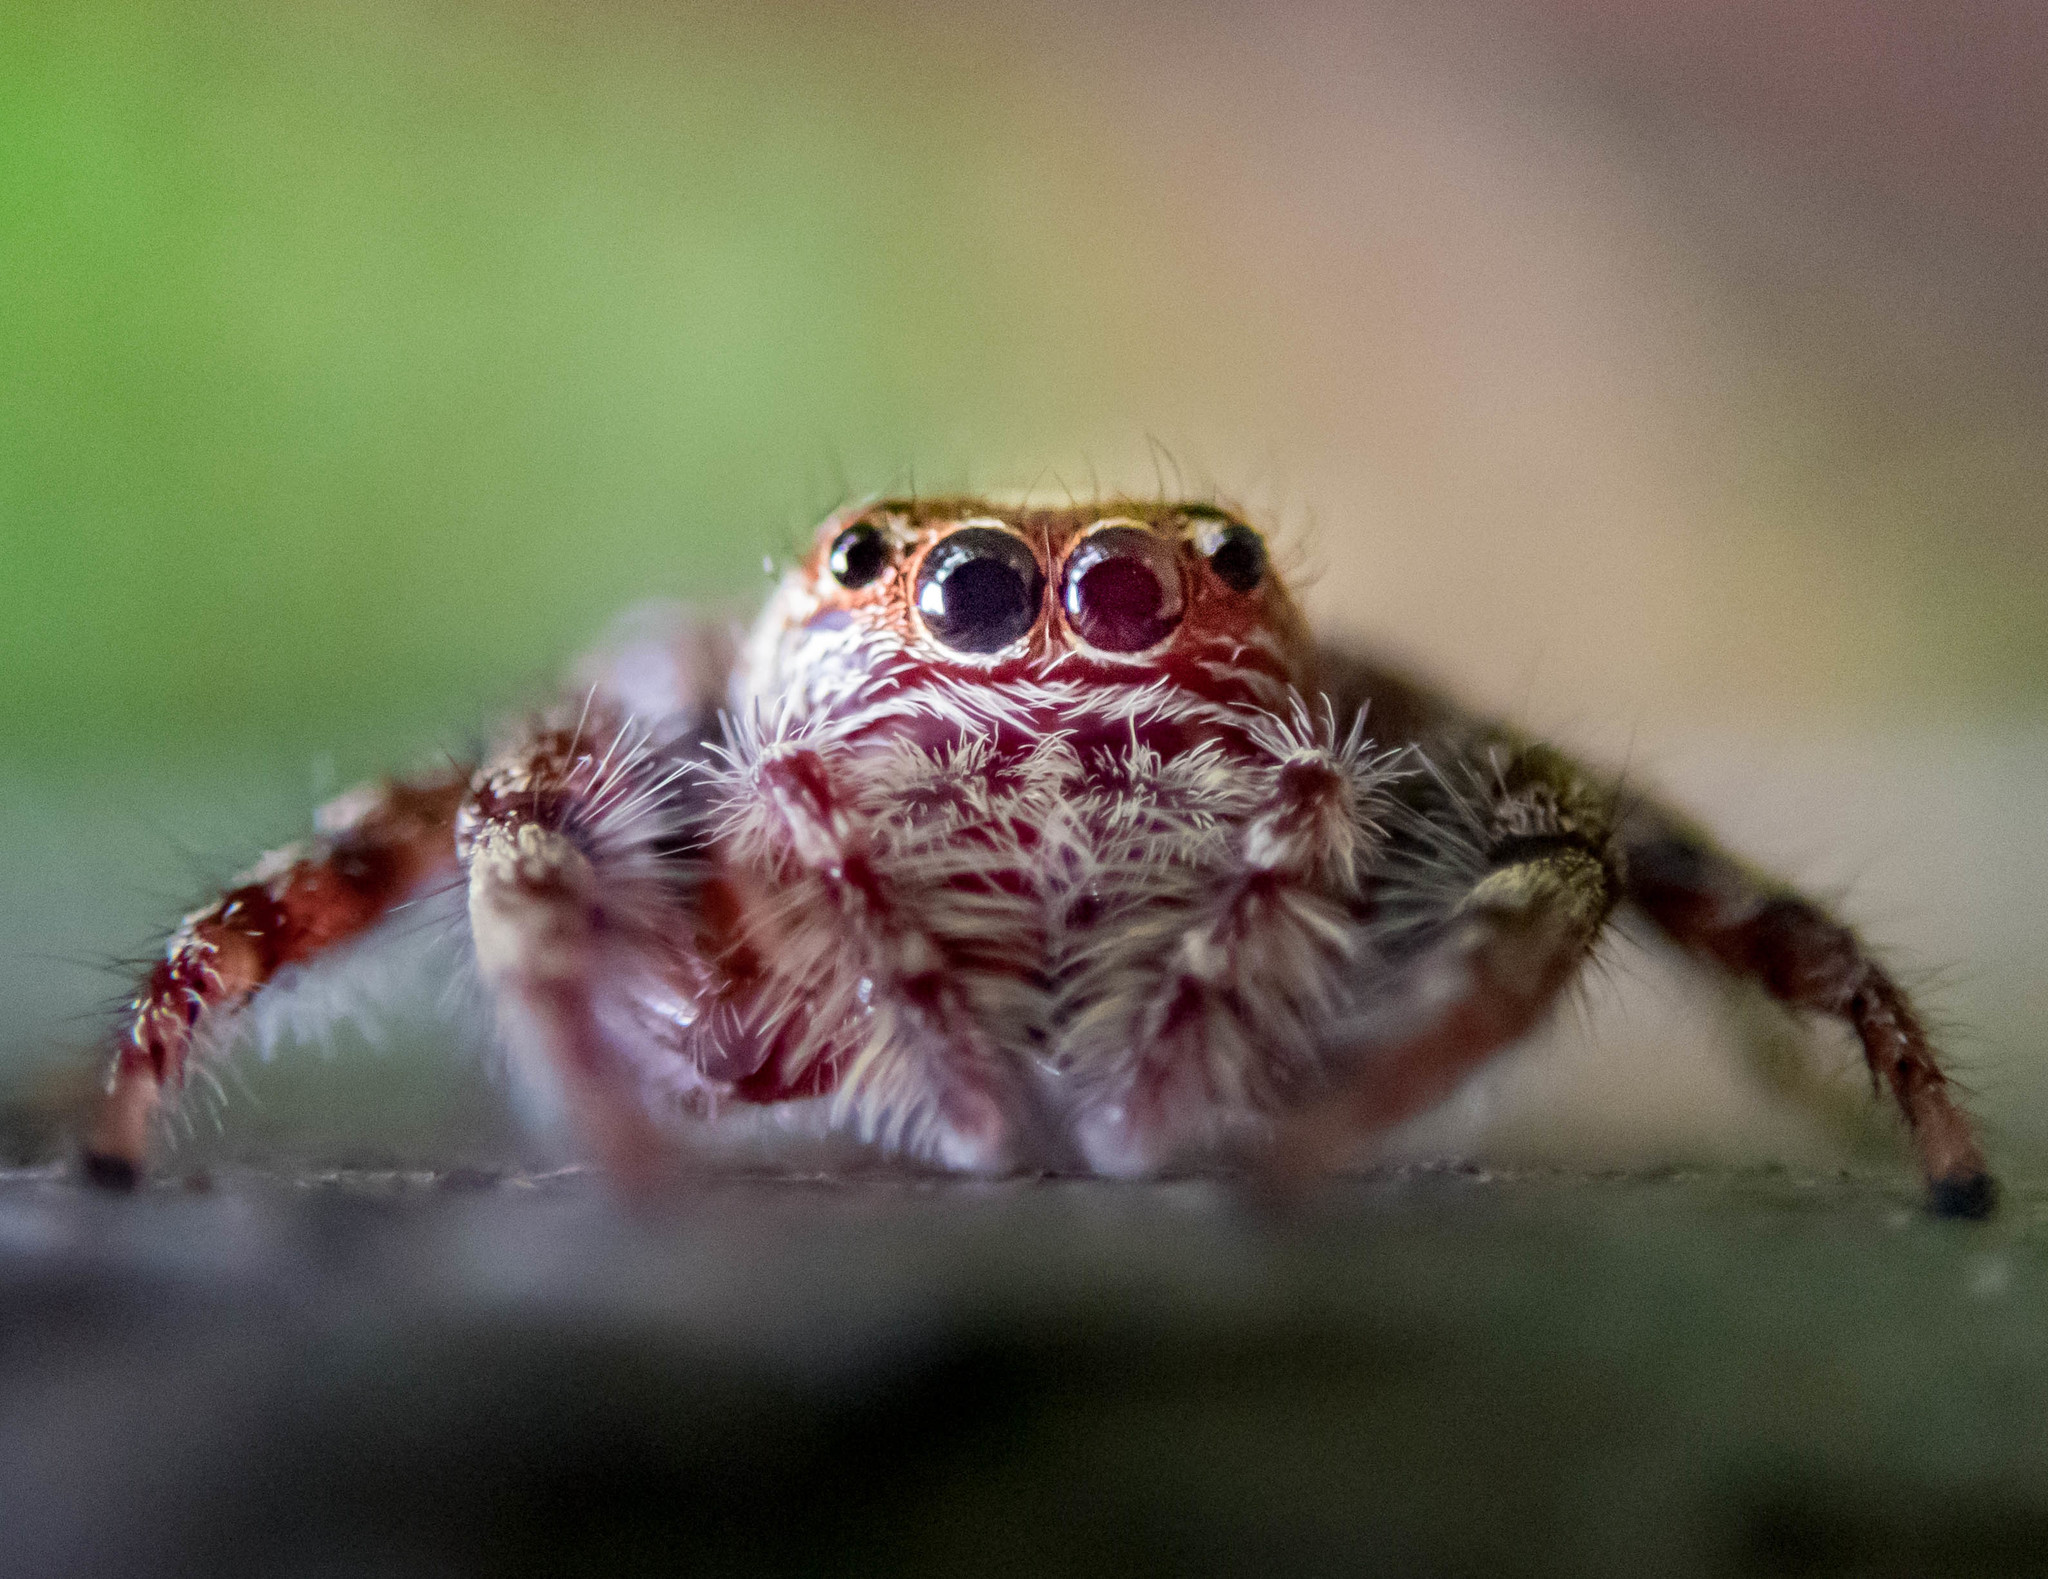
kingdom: Animalia
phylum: Arthropoda
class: Arachnida
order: Araneae
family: Salticidae
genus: Opisthoncus
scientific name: Opisthoncus quadratarius
